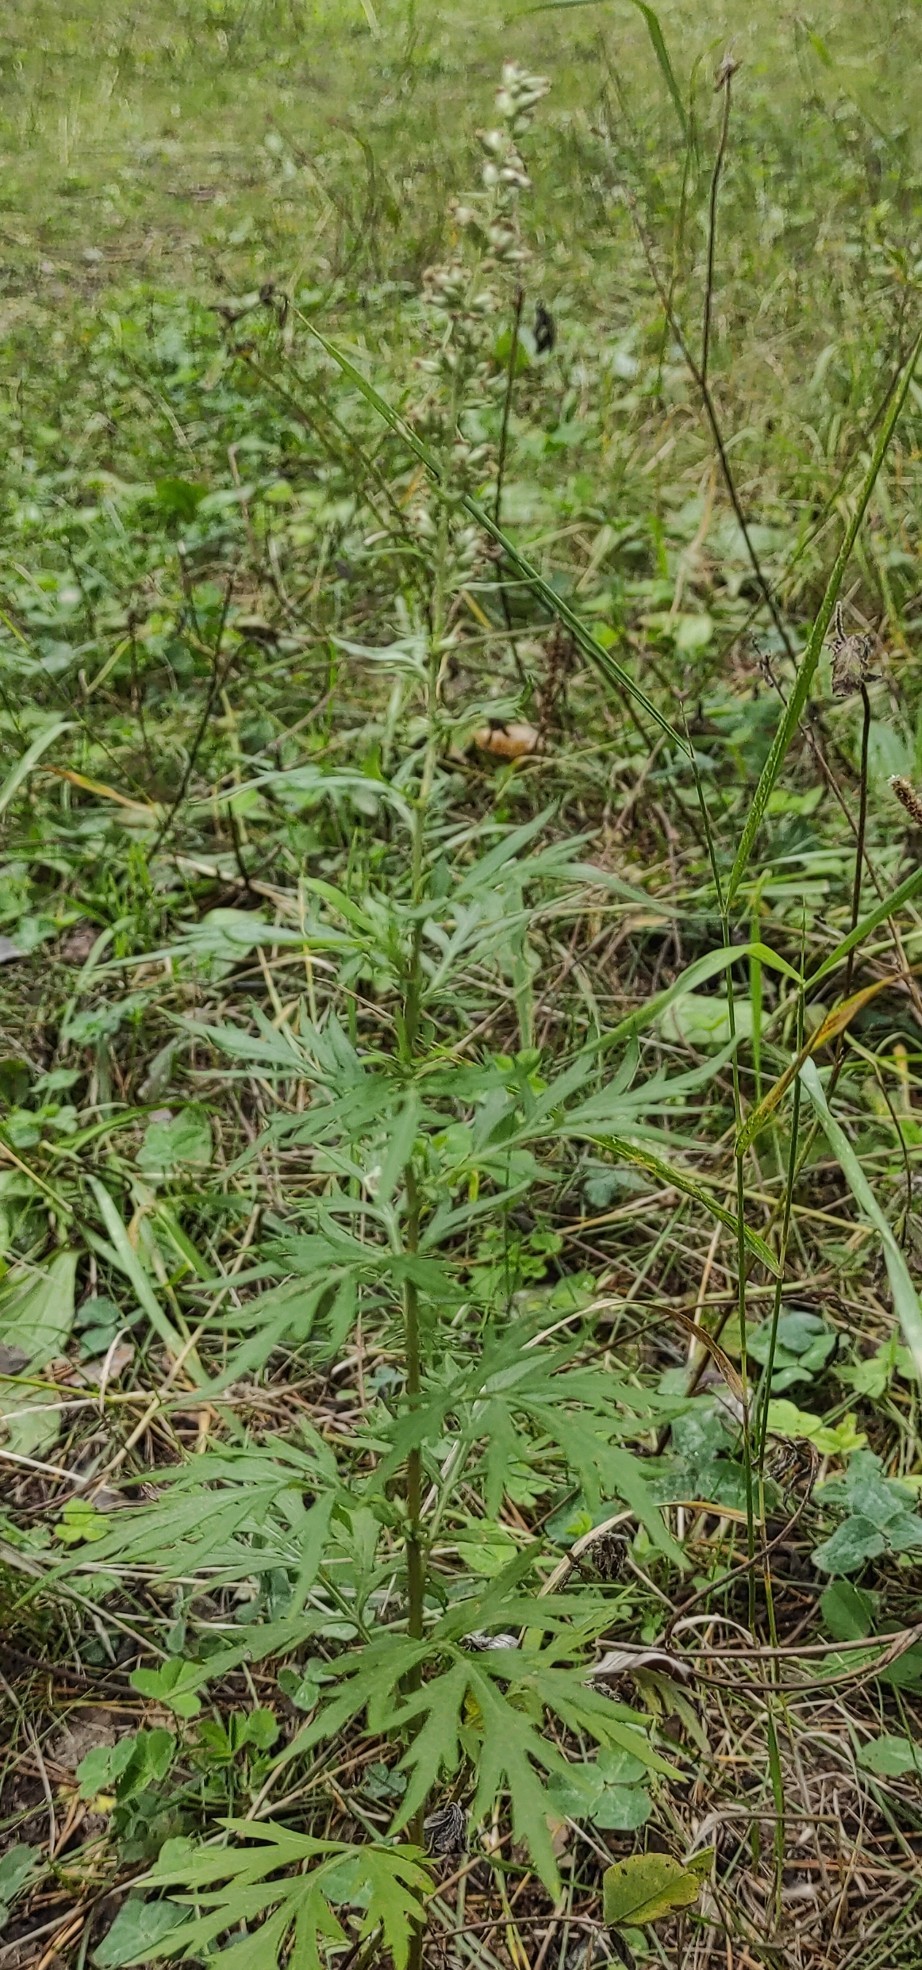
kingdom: Plantae
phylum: Tracheophyta
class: Magnoliopsida
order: Asterales
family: Asteraceae
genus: Artemisia
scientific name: Artemisia vulgaris
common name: Mugwort
